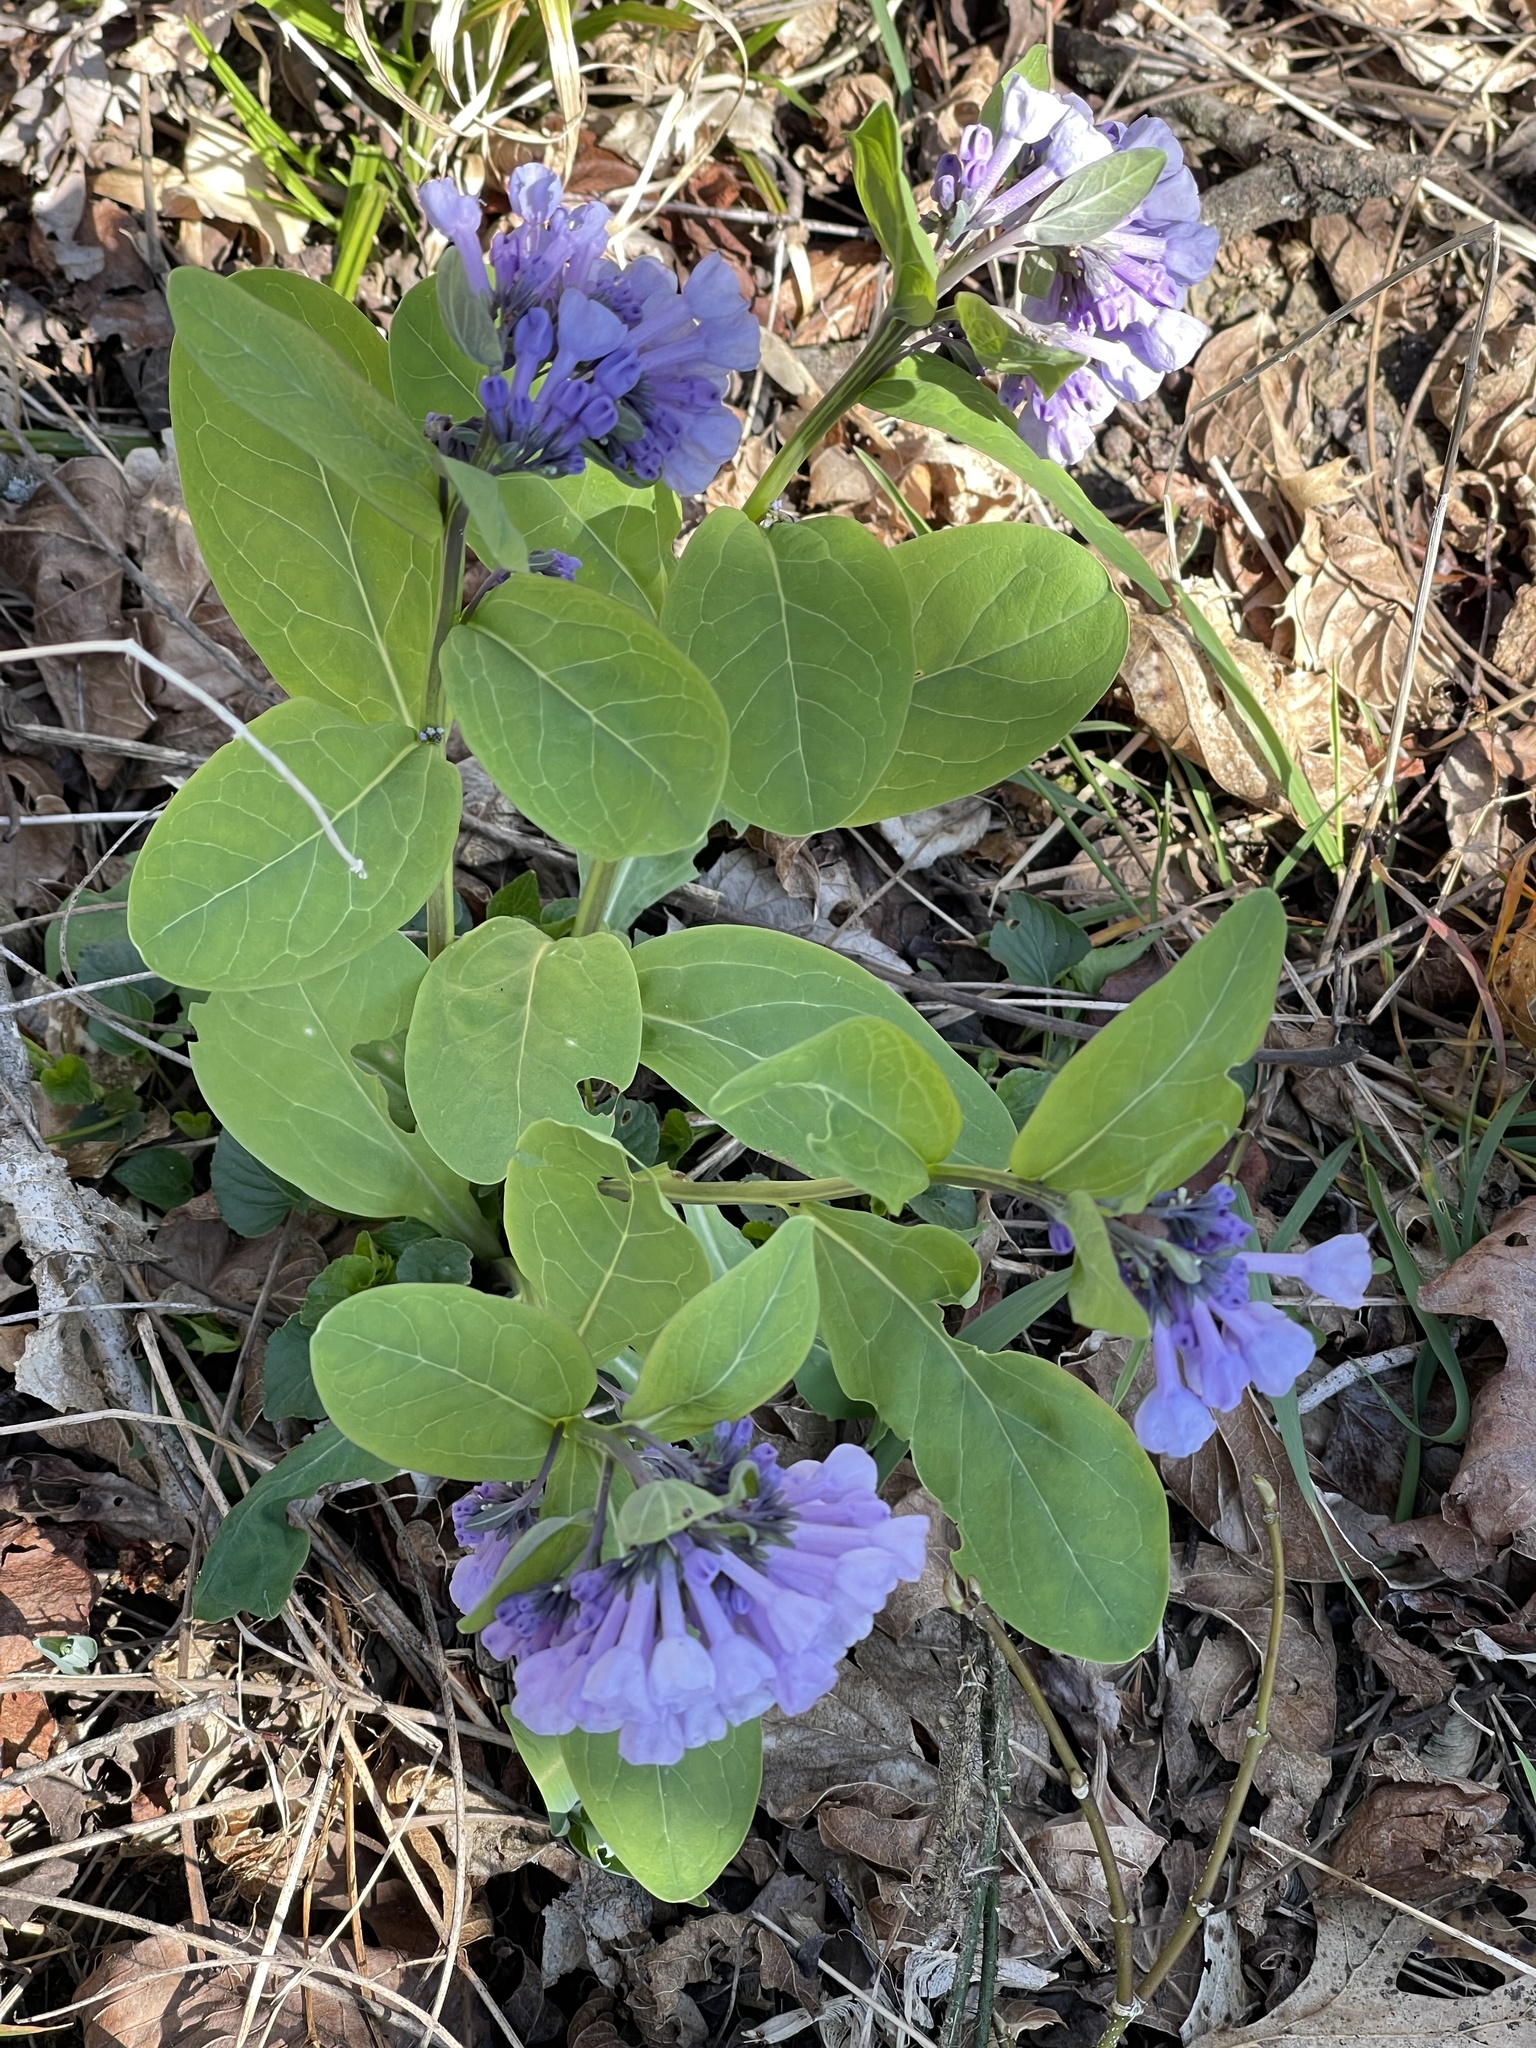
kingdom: Plantae
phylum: Tracheophyta
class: Magnoliopsida
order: Boraginales
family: Boraginaceae
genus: Mertensia
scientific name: Mertensia virginica
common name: Virginia bluebells
